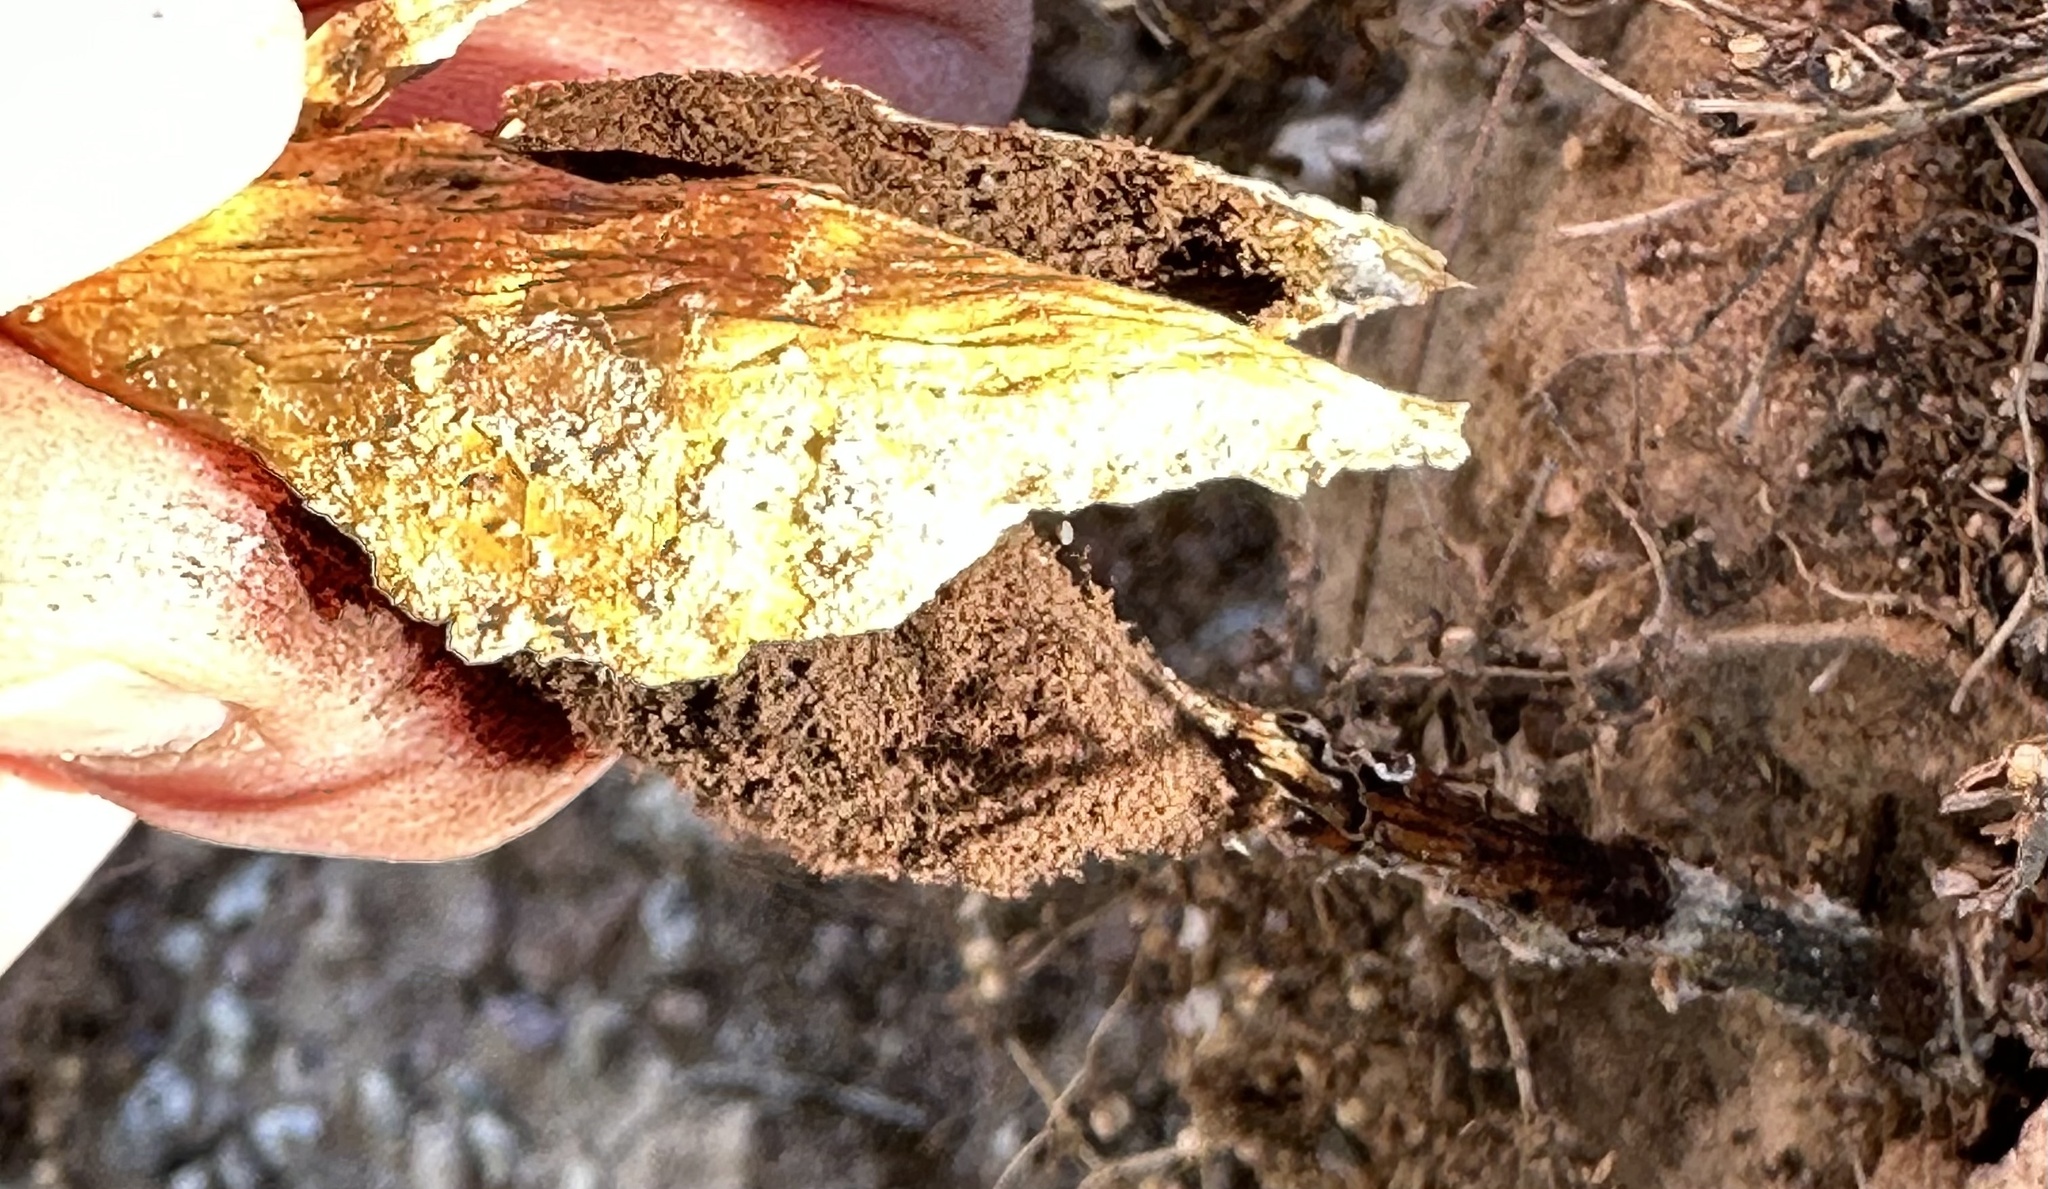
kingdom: Fungi
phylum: Basidiomycota
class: Agaricomycetes
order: Agaricales
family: Agaricaceae
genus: Podaxis
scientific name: Podaxis pistillaris
